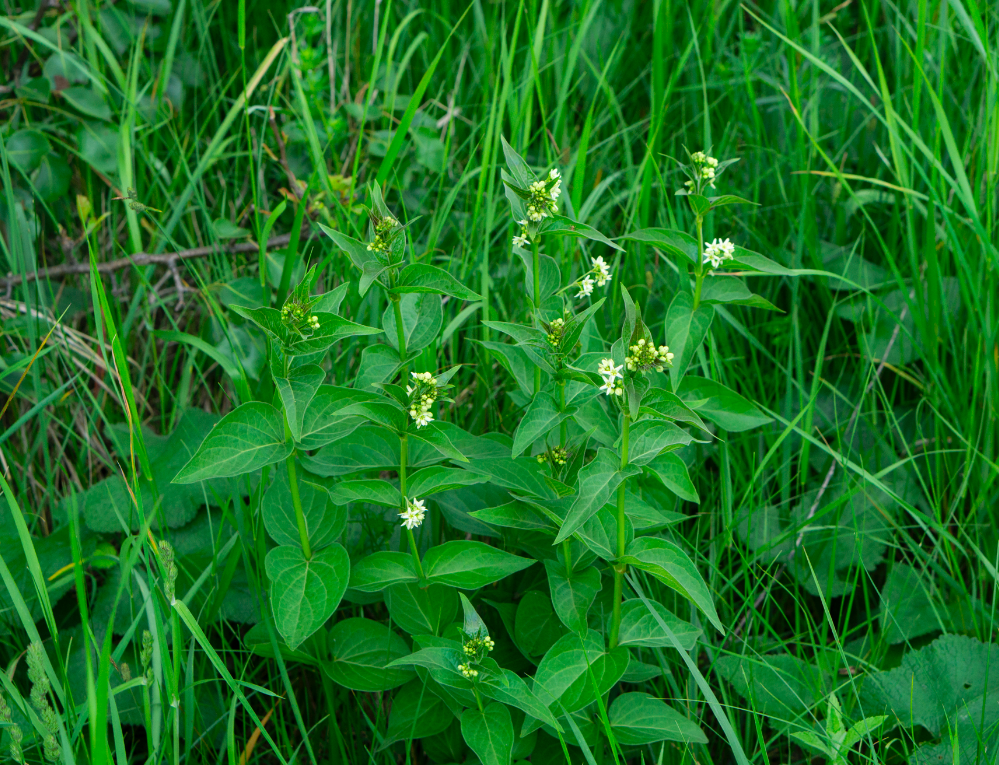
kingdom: Plantae
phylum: Tracheophyta
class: Magnoliopsida
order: Gentianales
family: Apocynaceae
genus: Vincetoxicum
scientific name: Vincetoxicum hirundinaria
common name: White swallowwort
